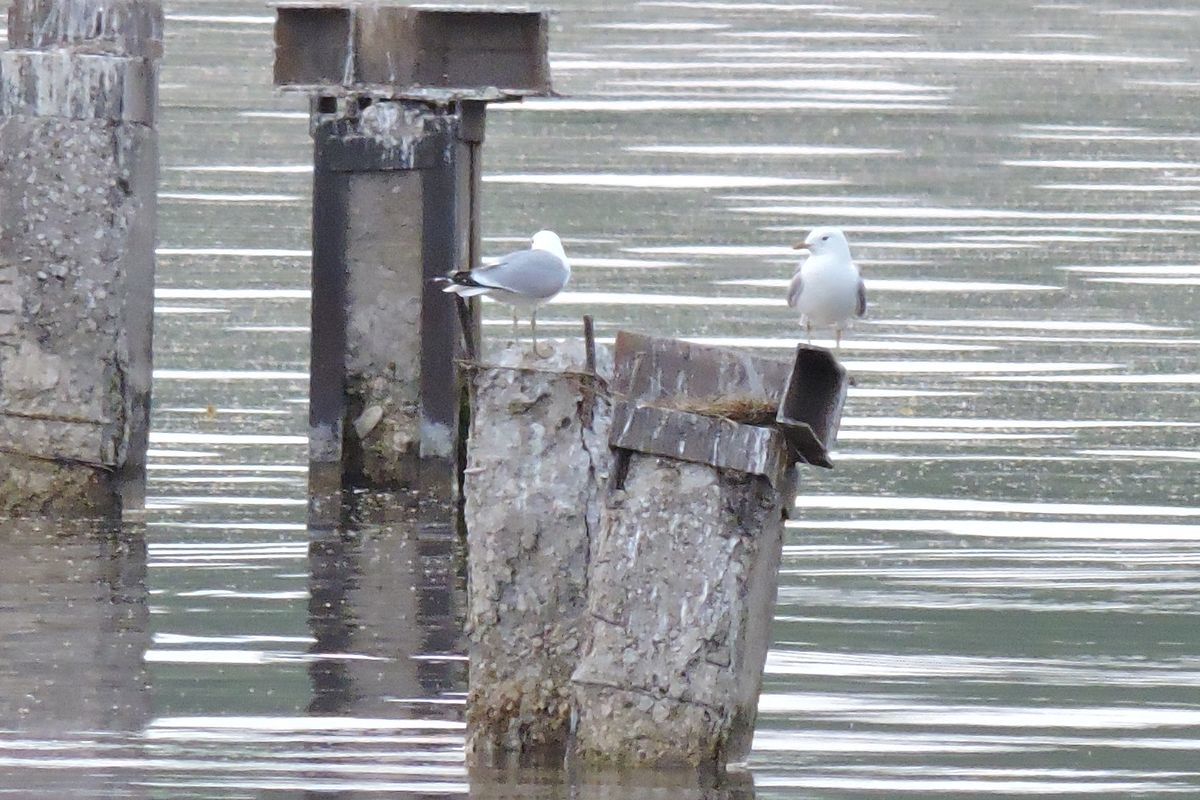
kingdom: Animalia
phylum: Chordata
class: Aves
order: Charadriiformes
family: Laridae
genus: Larus
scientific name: Larus canus
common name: Mew gull
